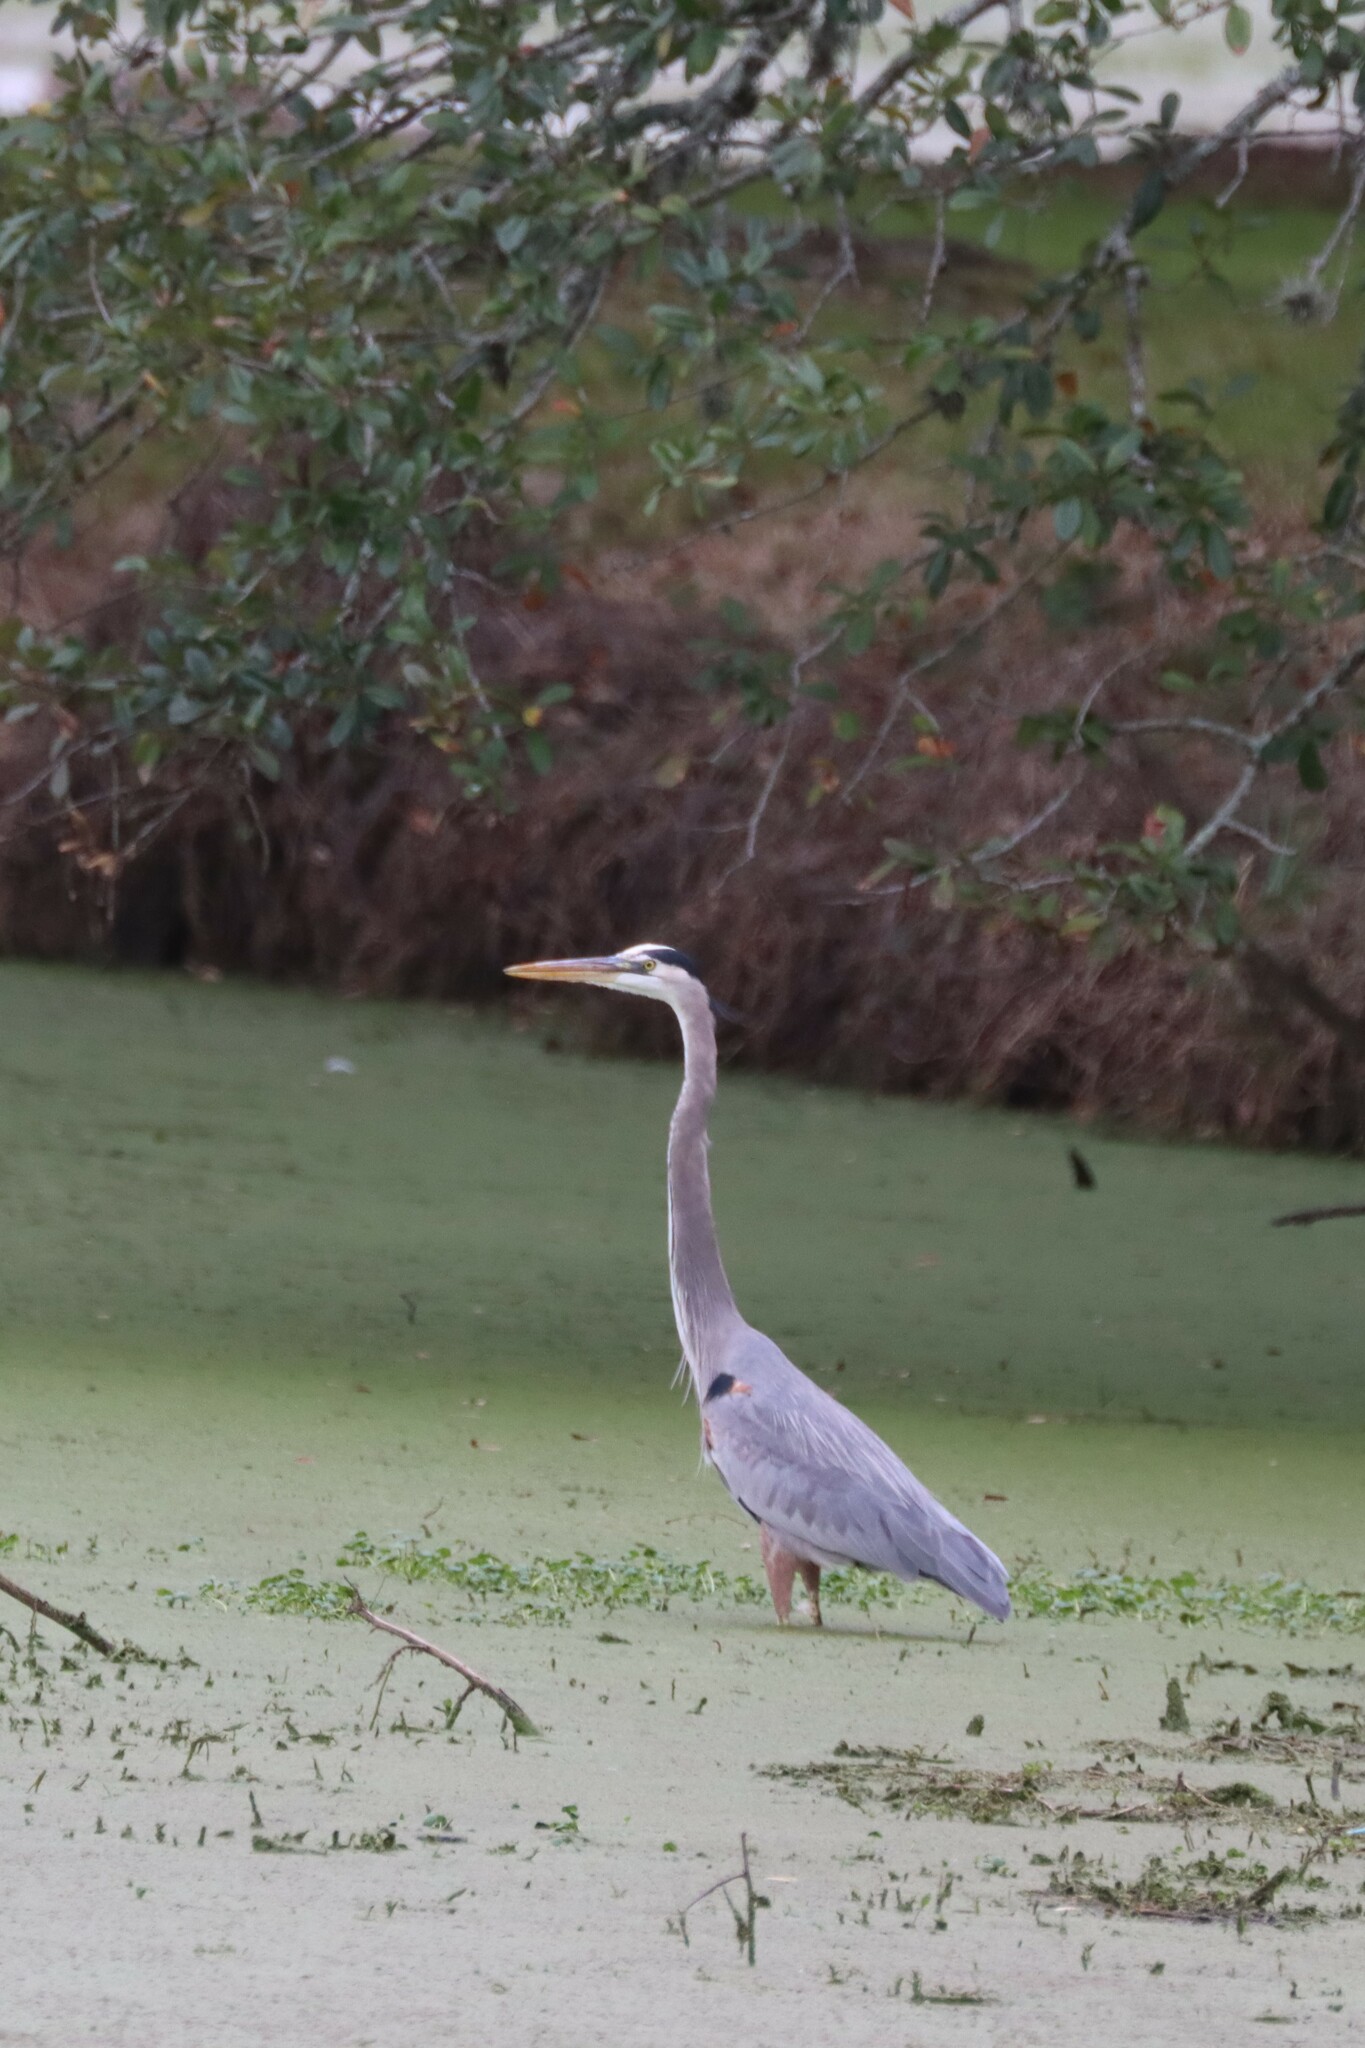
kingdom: Animalia
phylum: Chordata
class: Aves
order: Pelecaniformes
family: Ardeidae
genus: Ardea
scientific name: Ardea herodias
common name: Great blue heron
